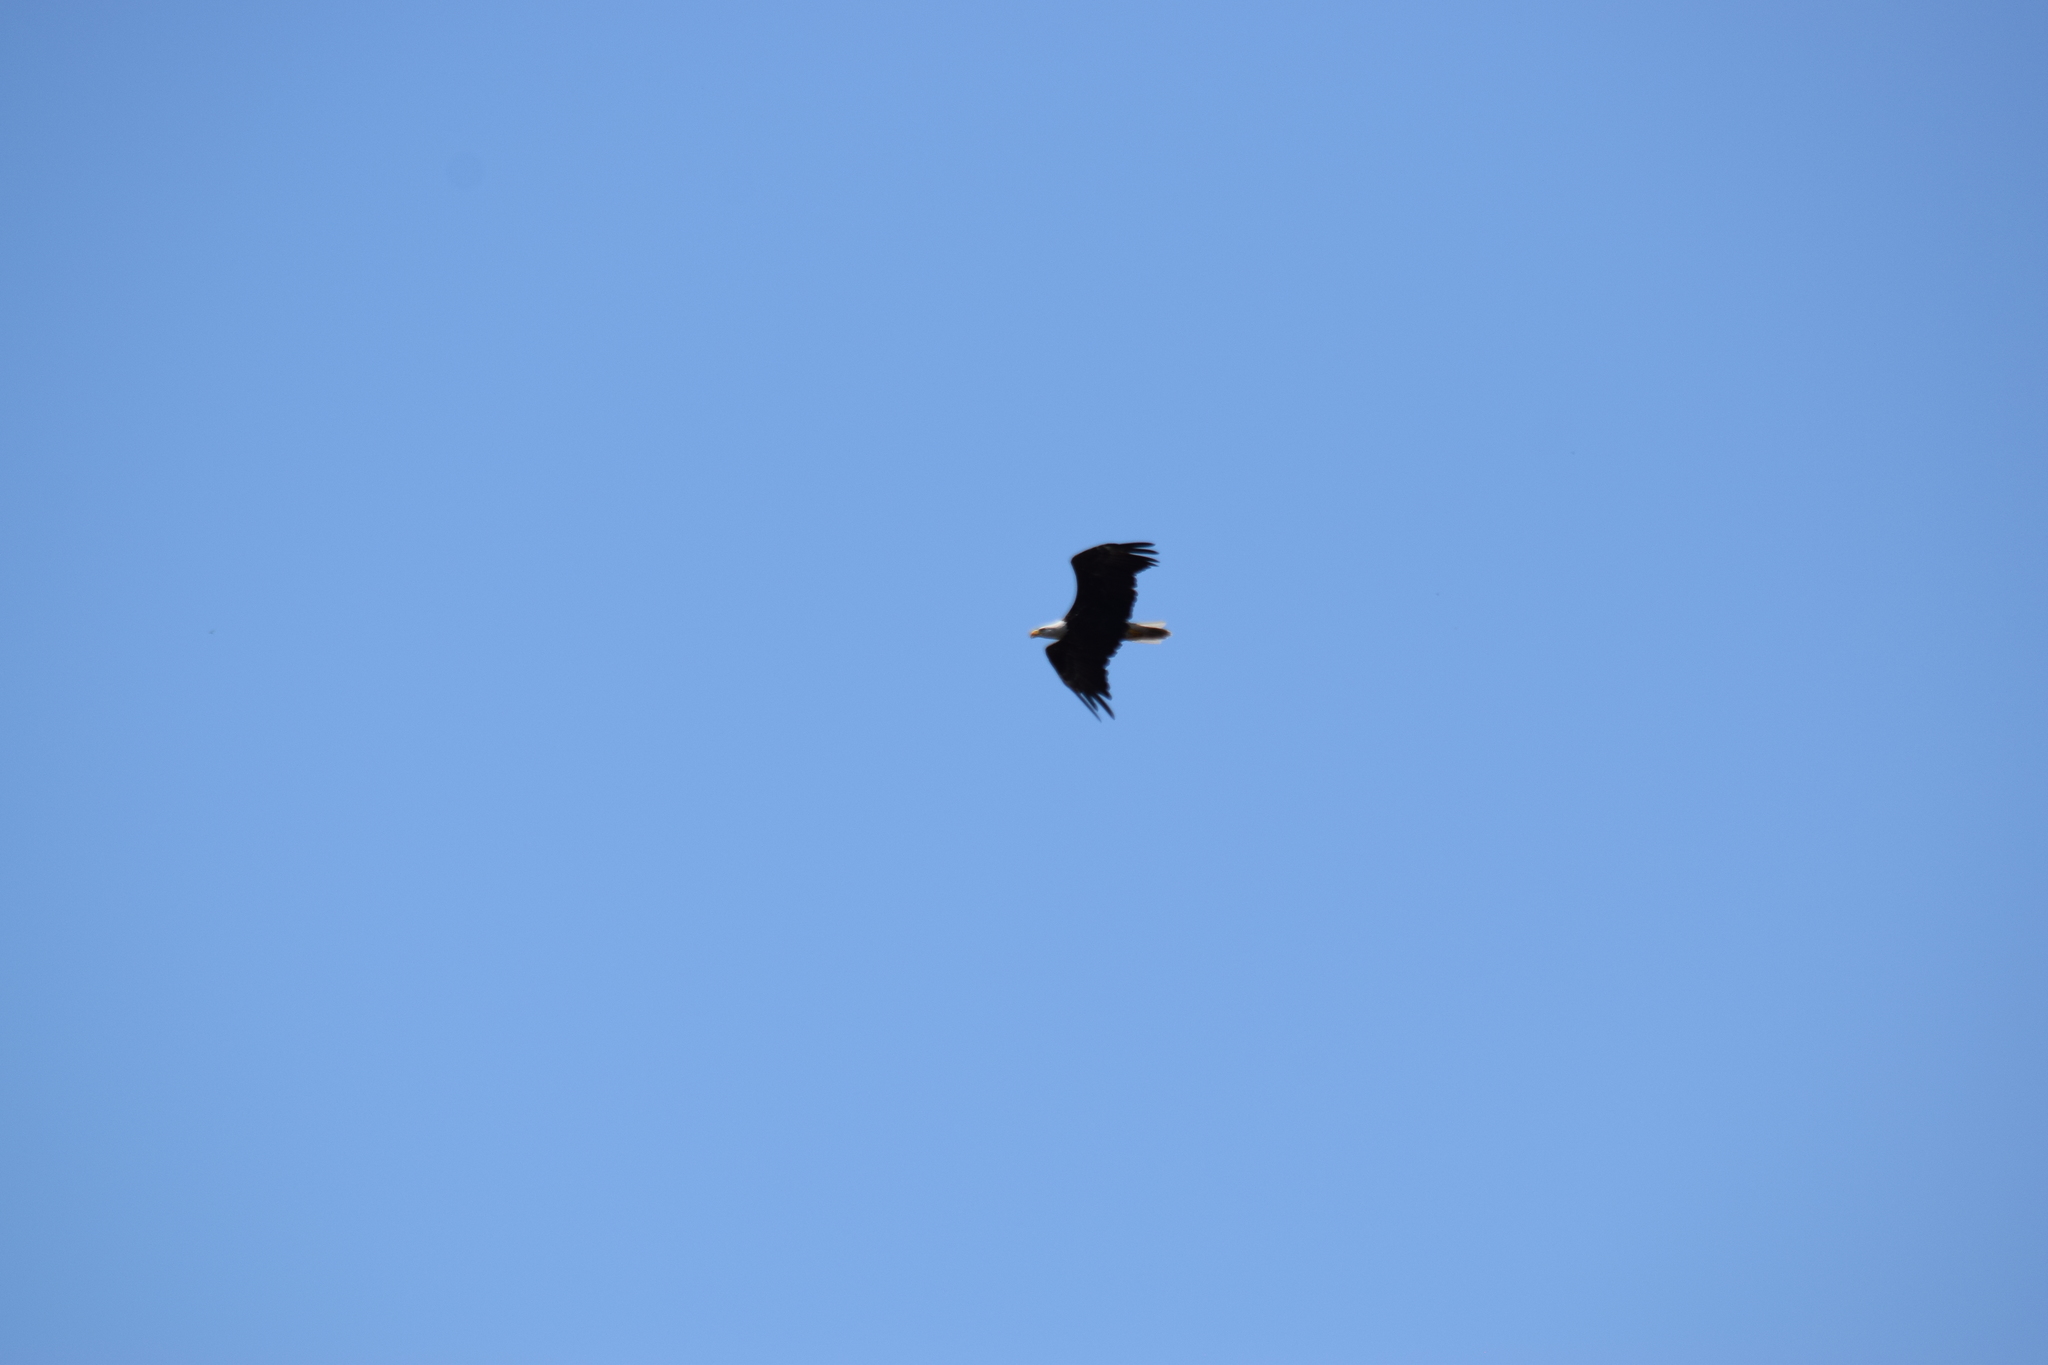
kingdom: Animalia
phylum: Chordata
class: Aves
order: Accipitriformes
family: Accipitridae
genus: Haliaeetus
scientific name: Haliaeetus leucocephalus
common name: Bald eagle
